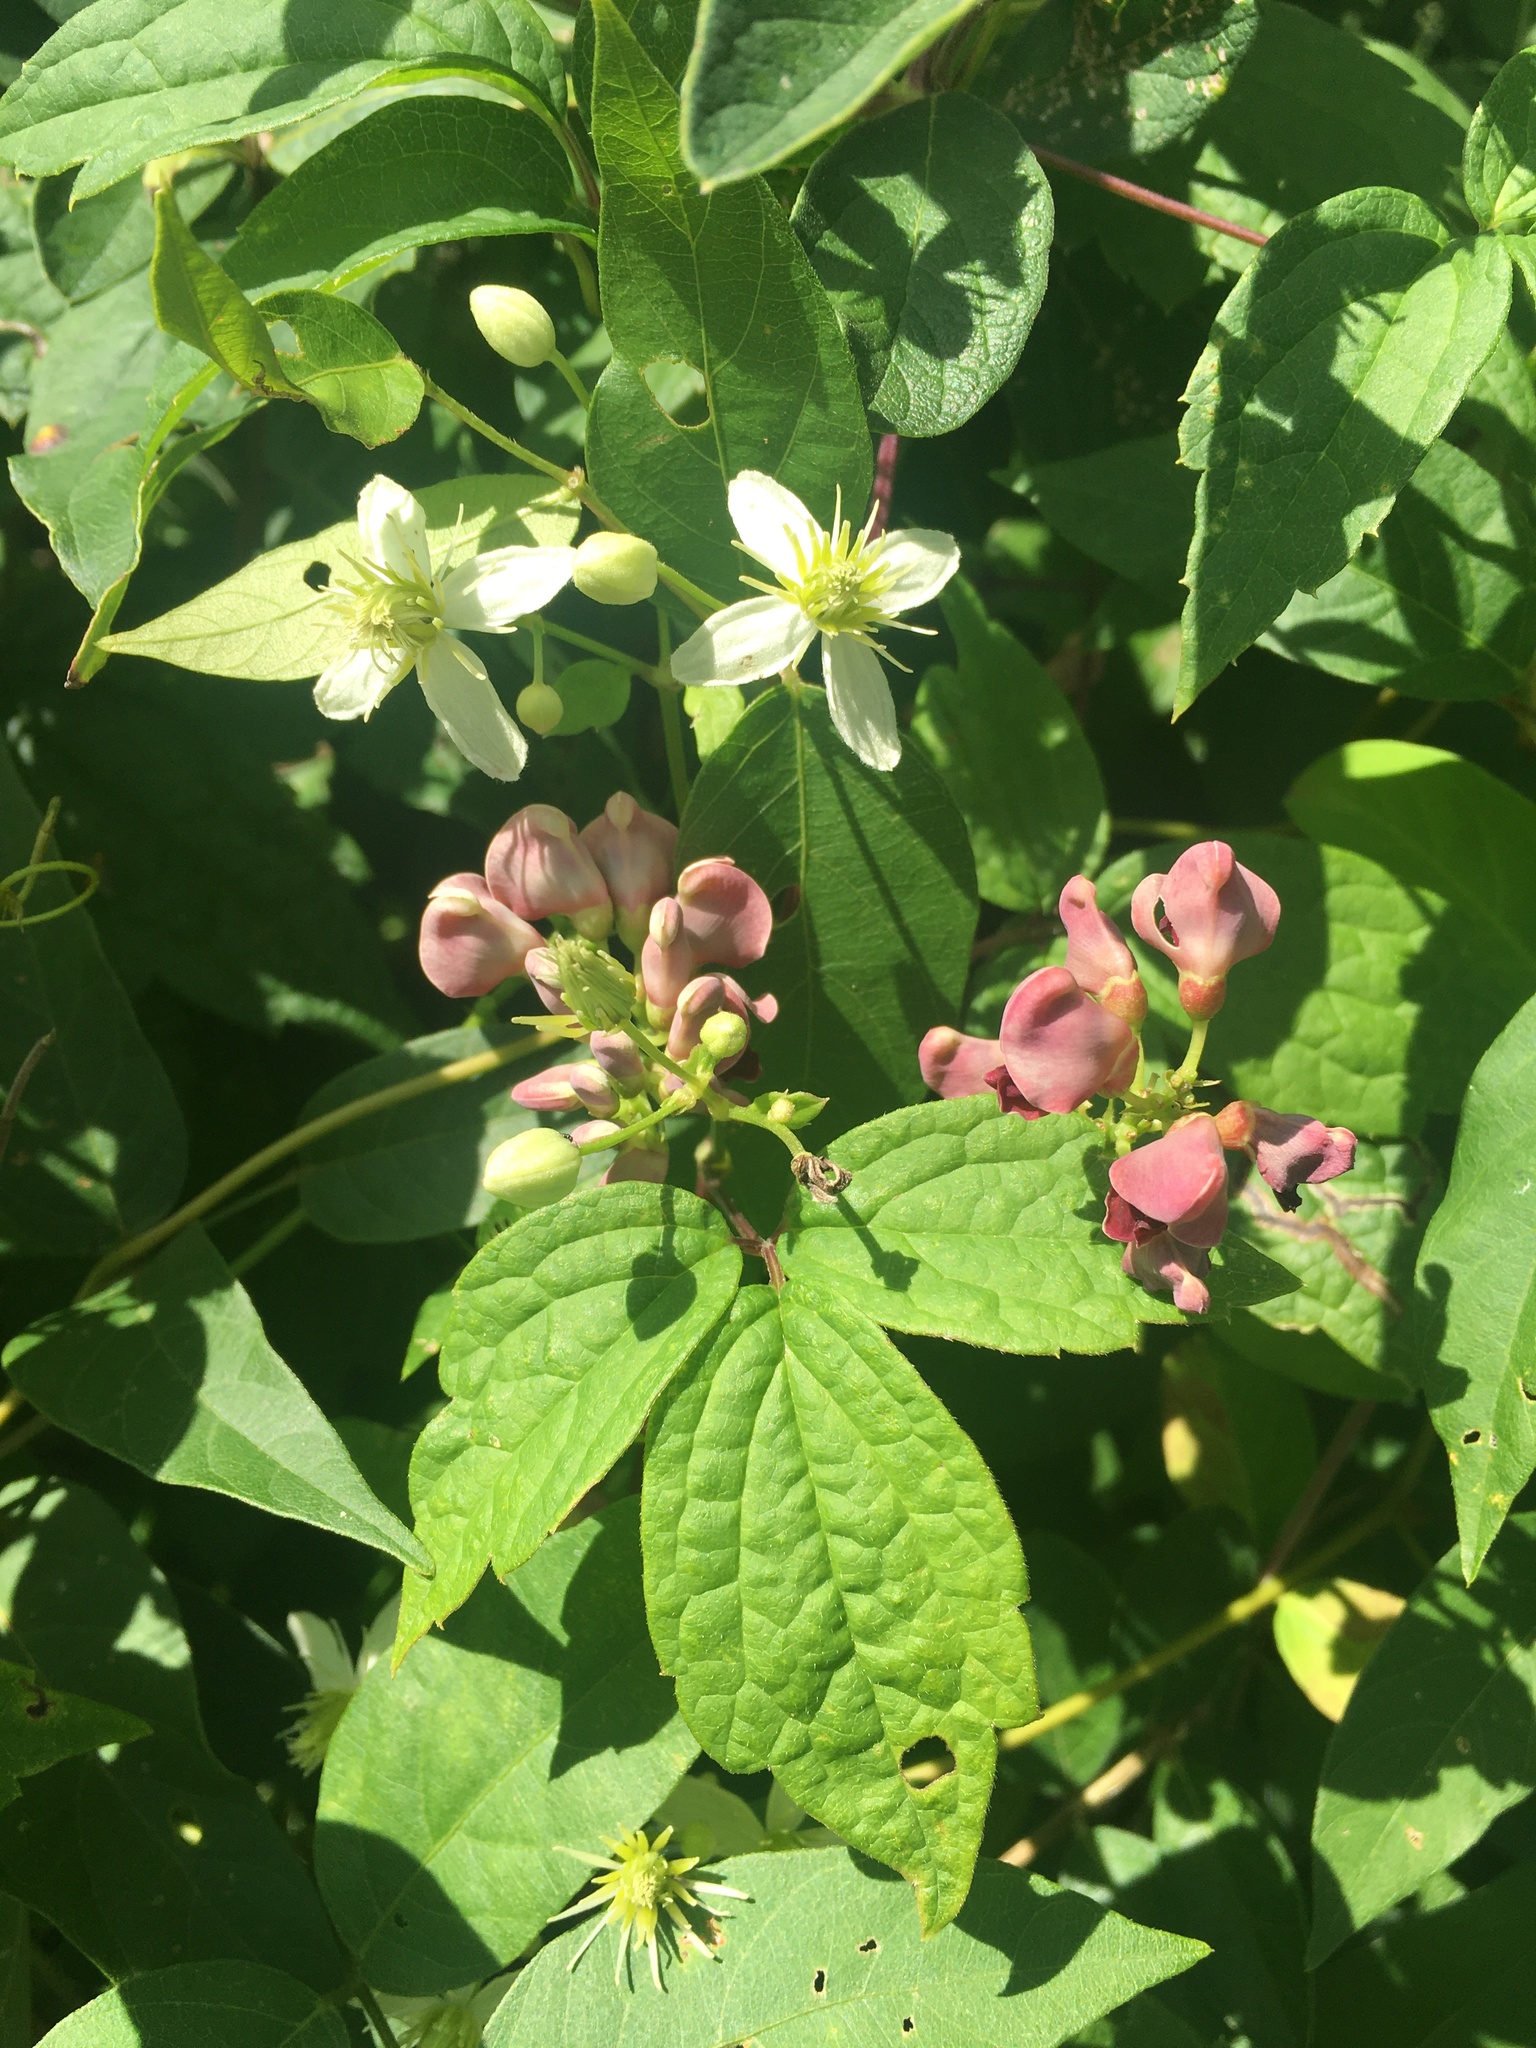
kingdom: Plantae
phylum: Tracheophyta
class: Magnoliopsida
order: Fabales
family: Fabaceae
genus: Apios
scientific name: Apios americana
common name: American potato-bean
